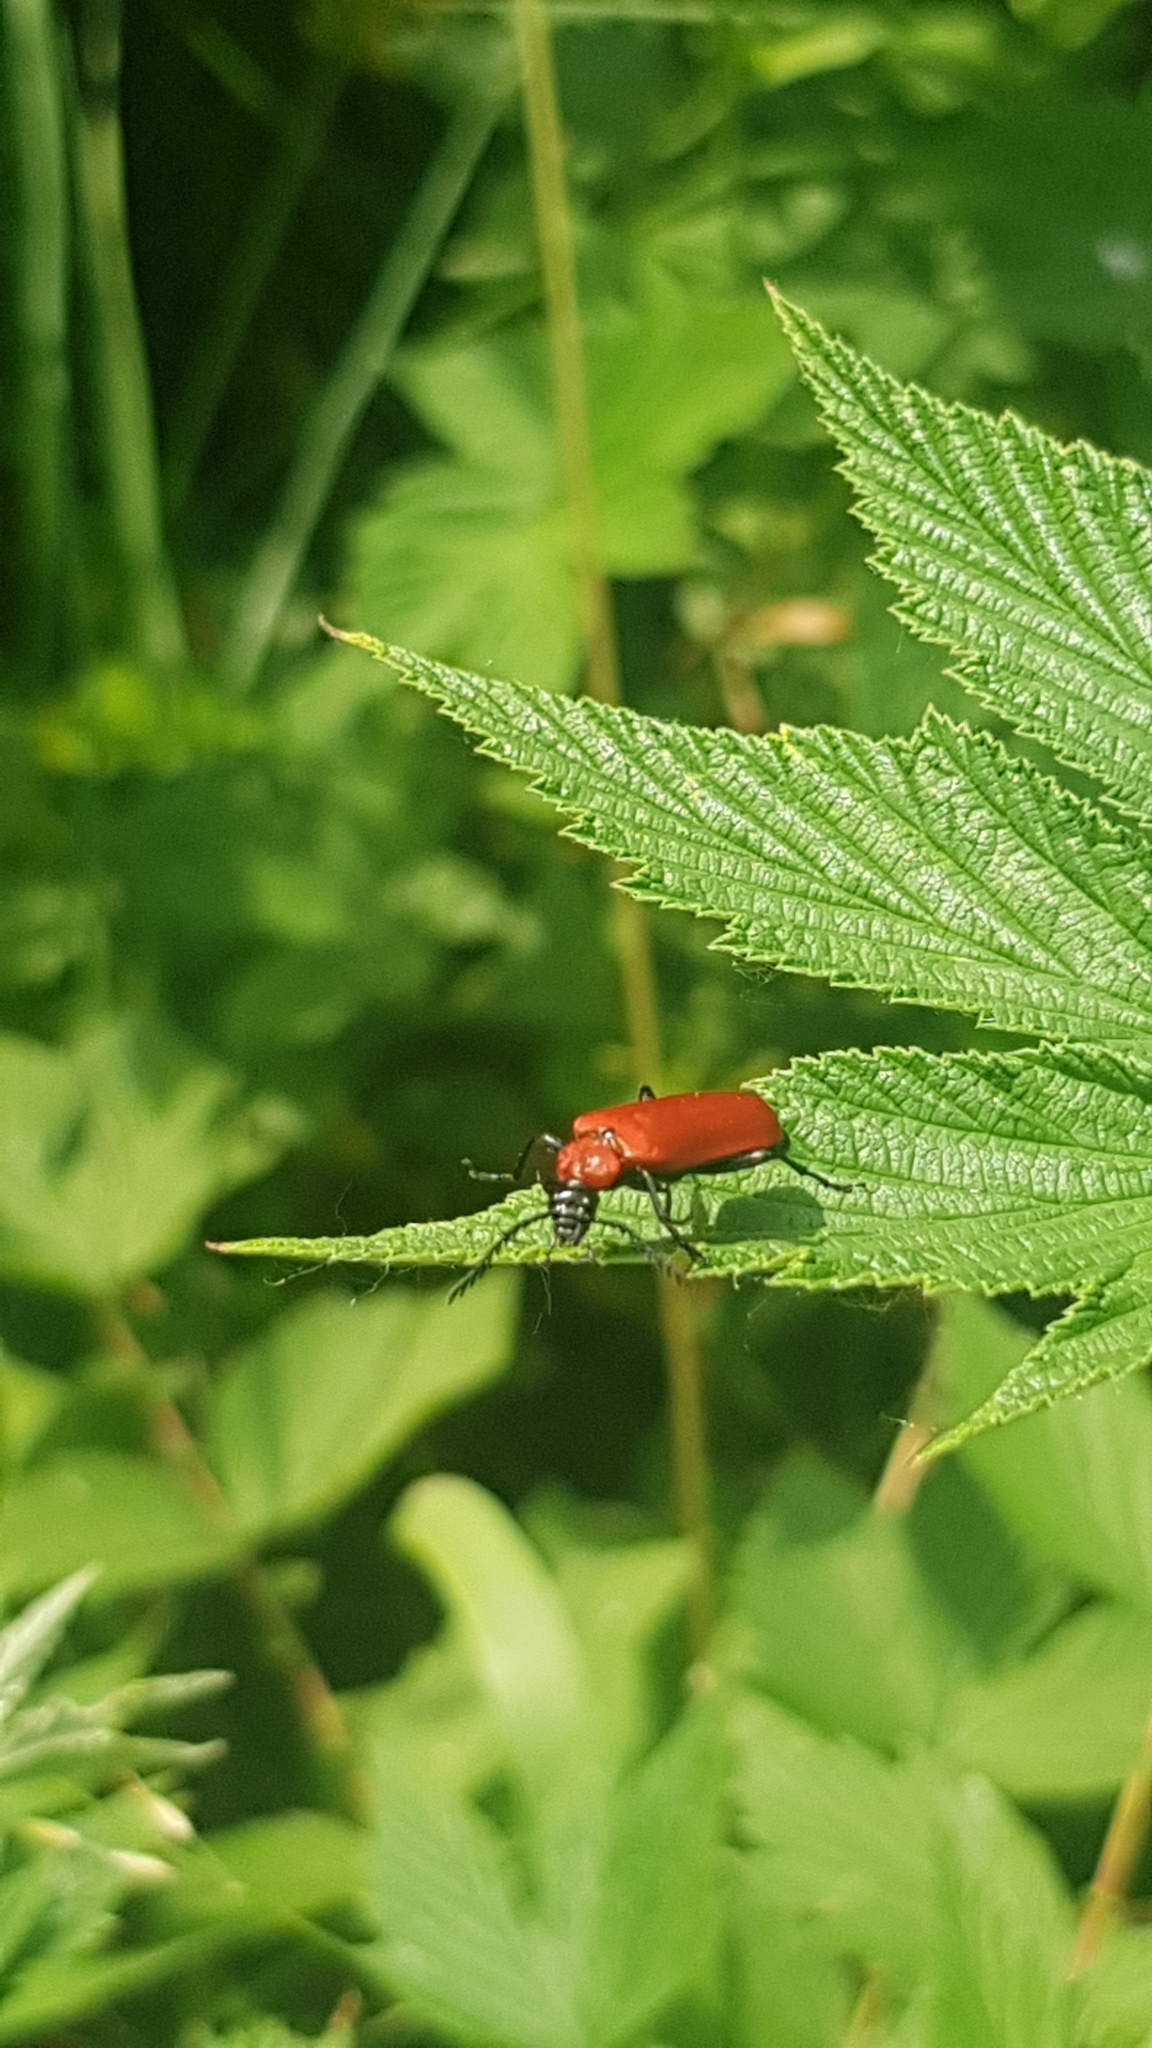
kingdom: Animalia
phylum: Arthropoda
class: Insecta
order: Coleoptera
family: Pyrochroidae
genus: Pyrochroa
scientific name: Pyrochroa coccinea
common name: Black-headed cardinal beetle
